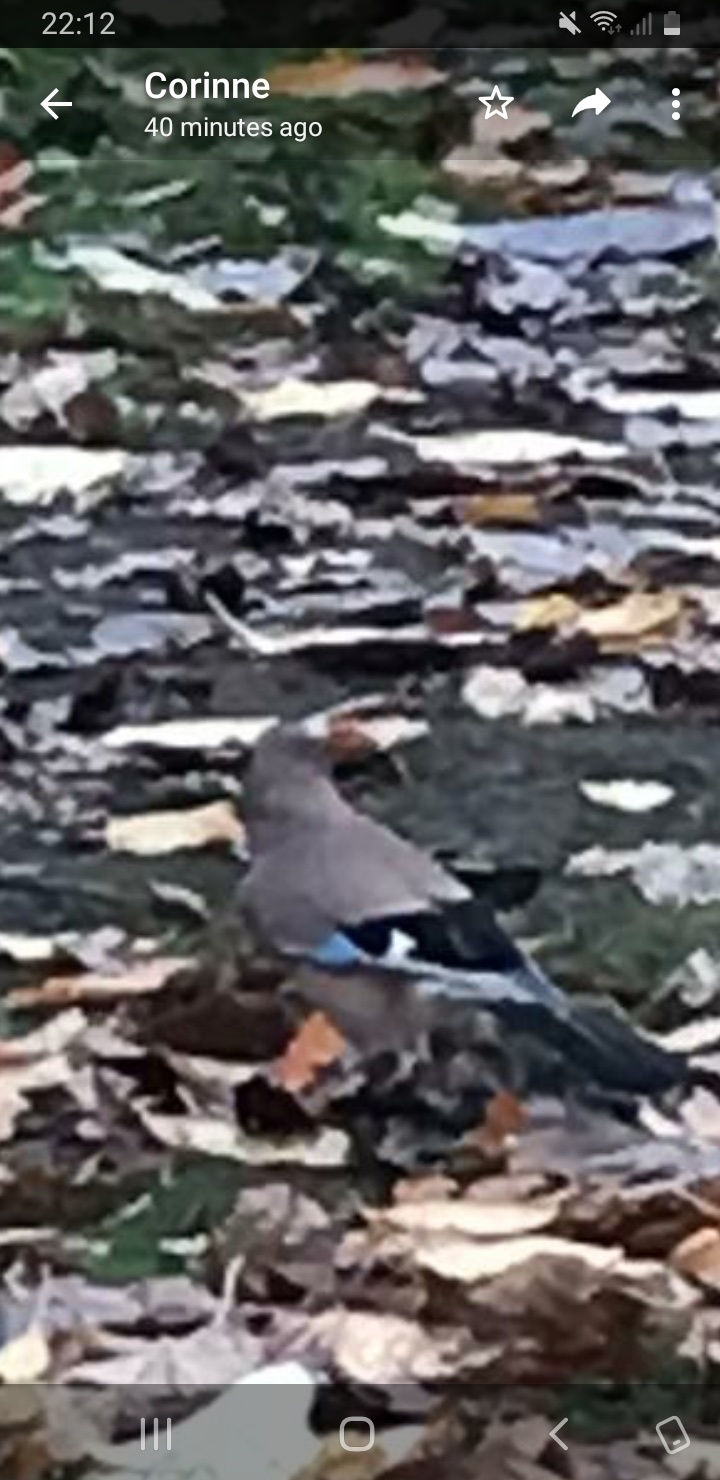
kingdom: Animalia
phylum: Chordata
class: Aves
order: Passeriformes
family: Corvidae
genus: Garrulus
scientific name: Garrulus glandarius
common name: Eurasian jay
